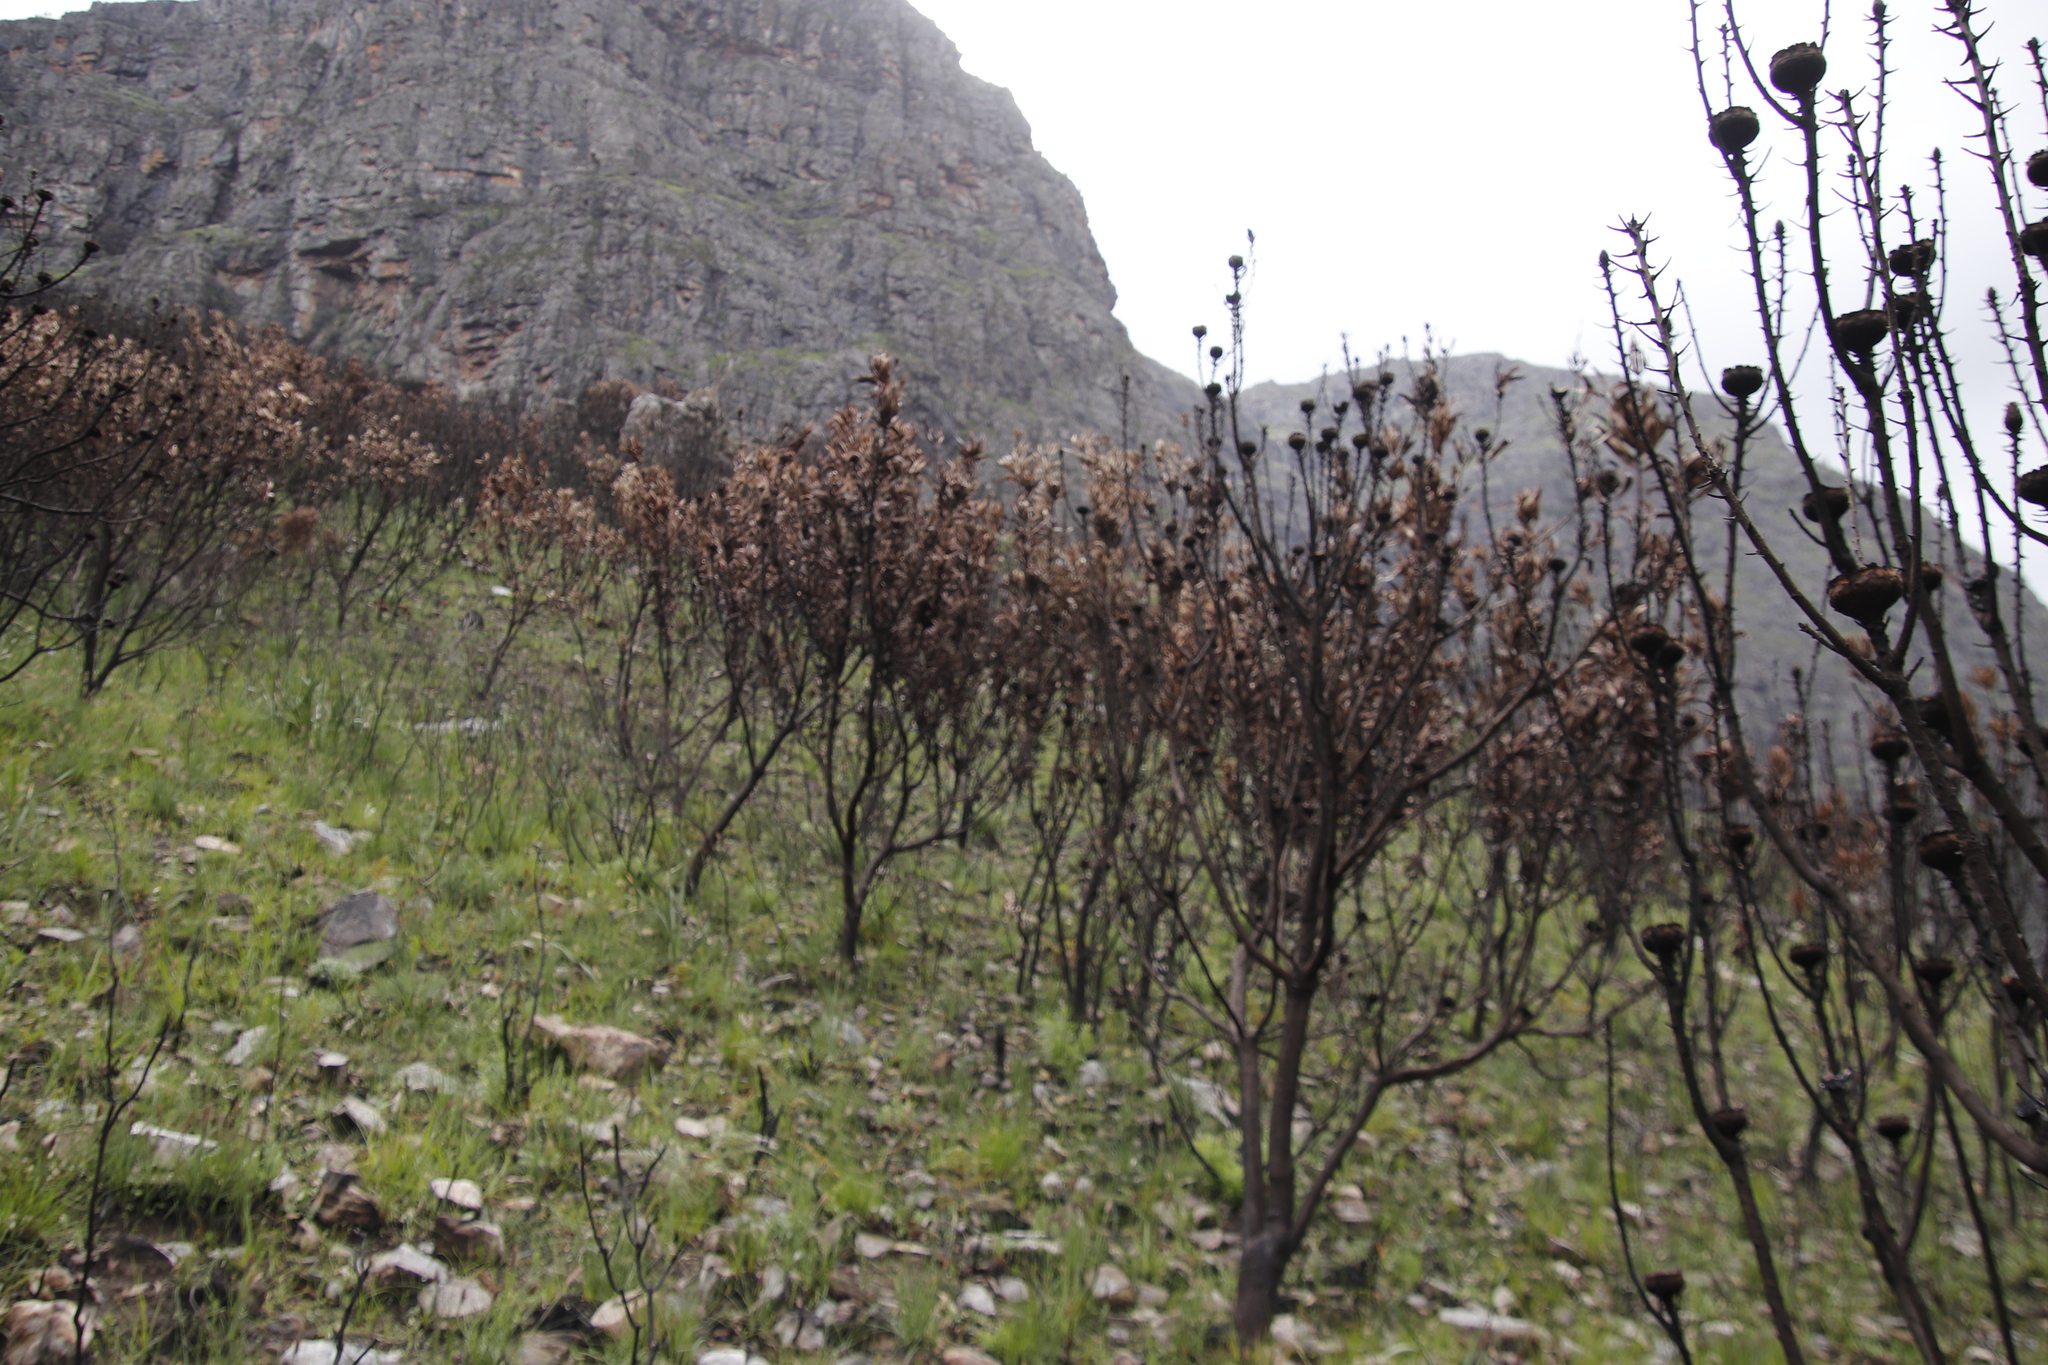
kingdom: Plantae
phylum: Tracheophyta
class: Magnoliopsida
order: Proteales
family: Proteaceae
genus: Protea
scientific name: Protea laurifolia
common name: Grey-leaf sugarbsh
